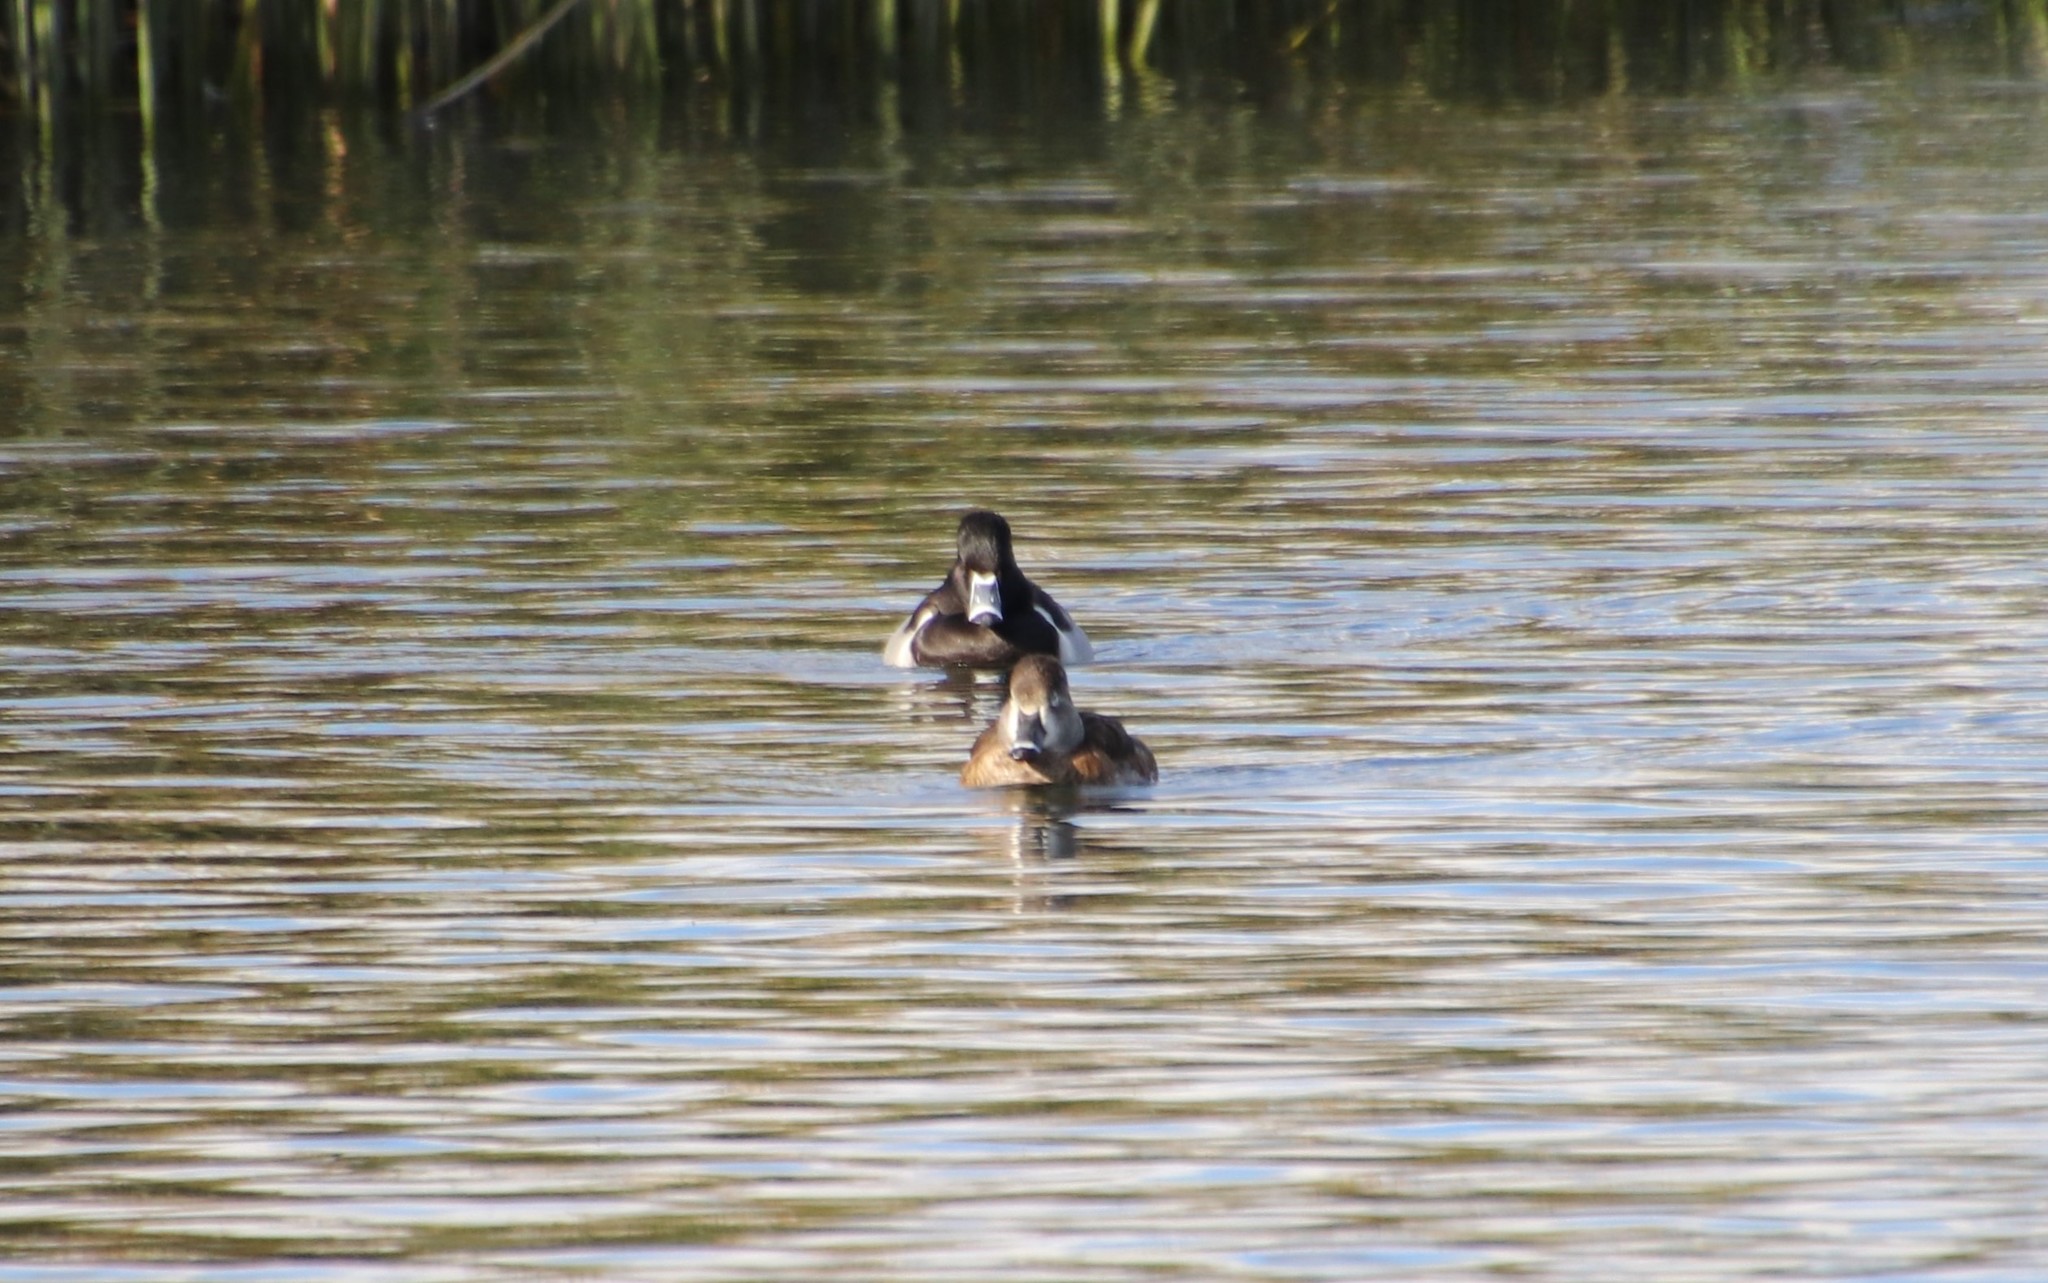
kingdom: Animalia
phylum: Chordata
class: Aves
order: Anseriformes
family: Anatidae
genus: Aythya
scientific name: Aythya collaris
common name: Ring-necked duck
